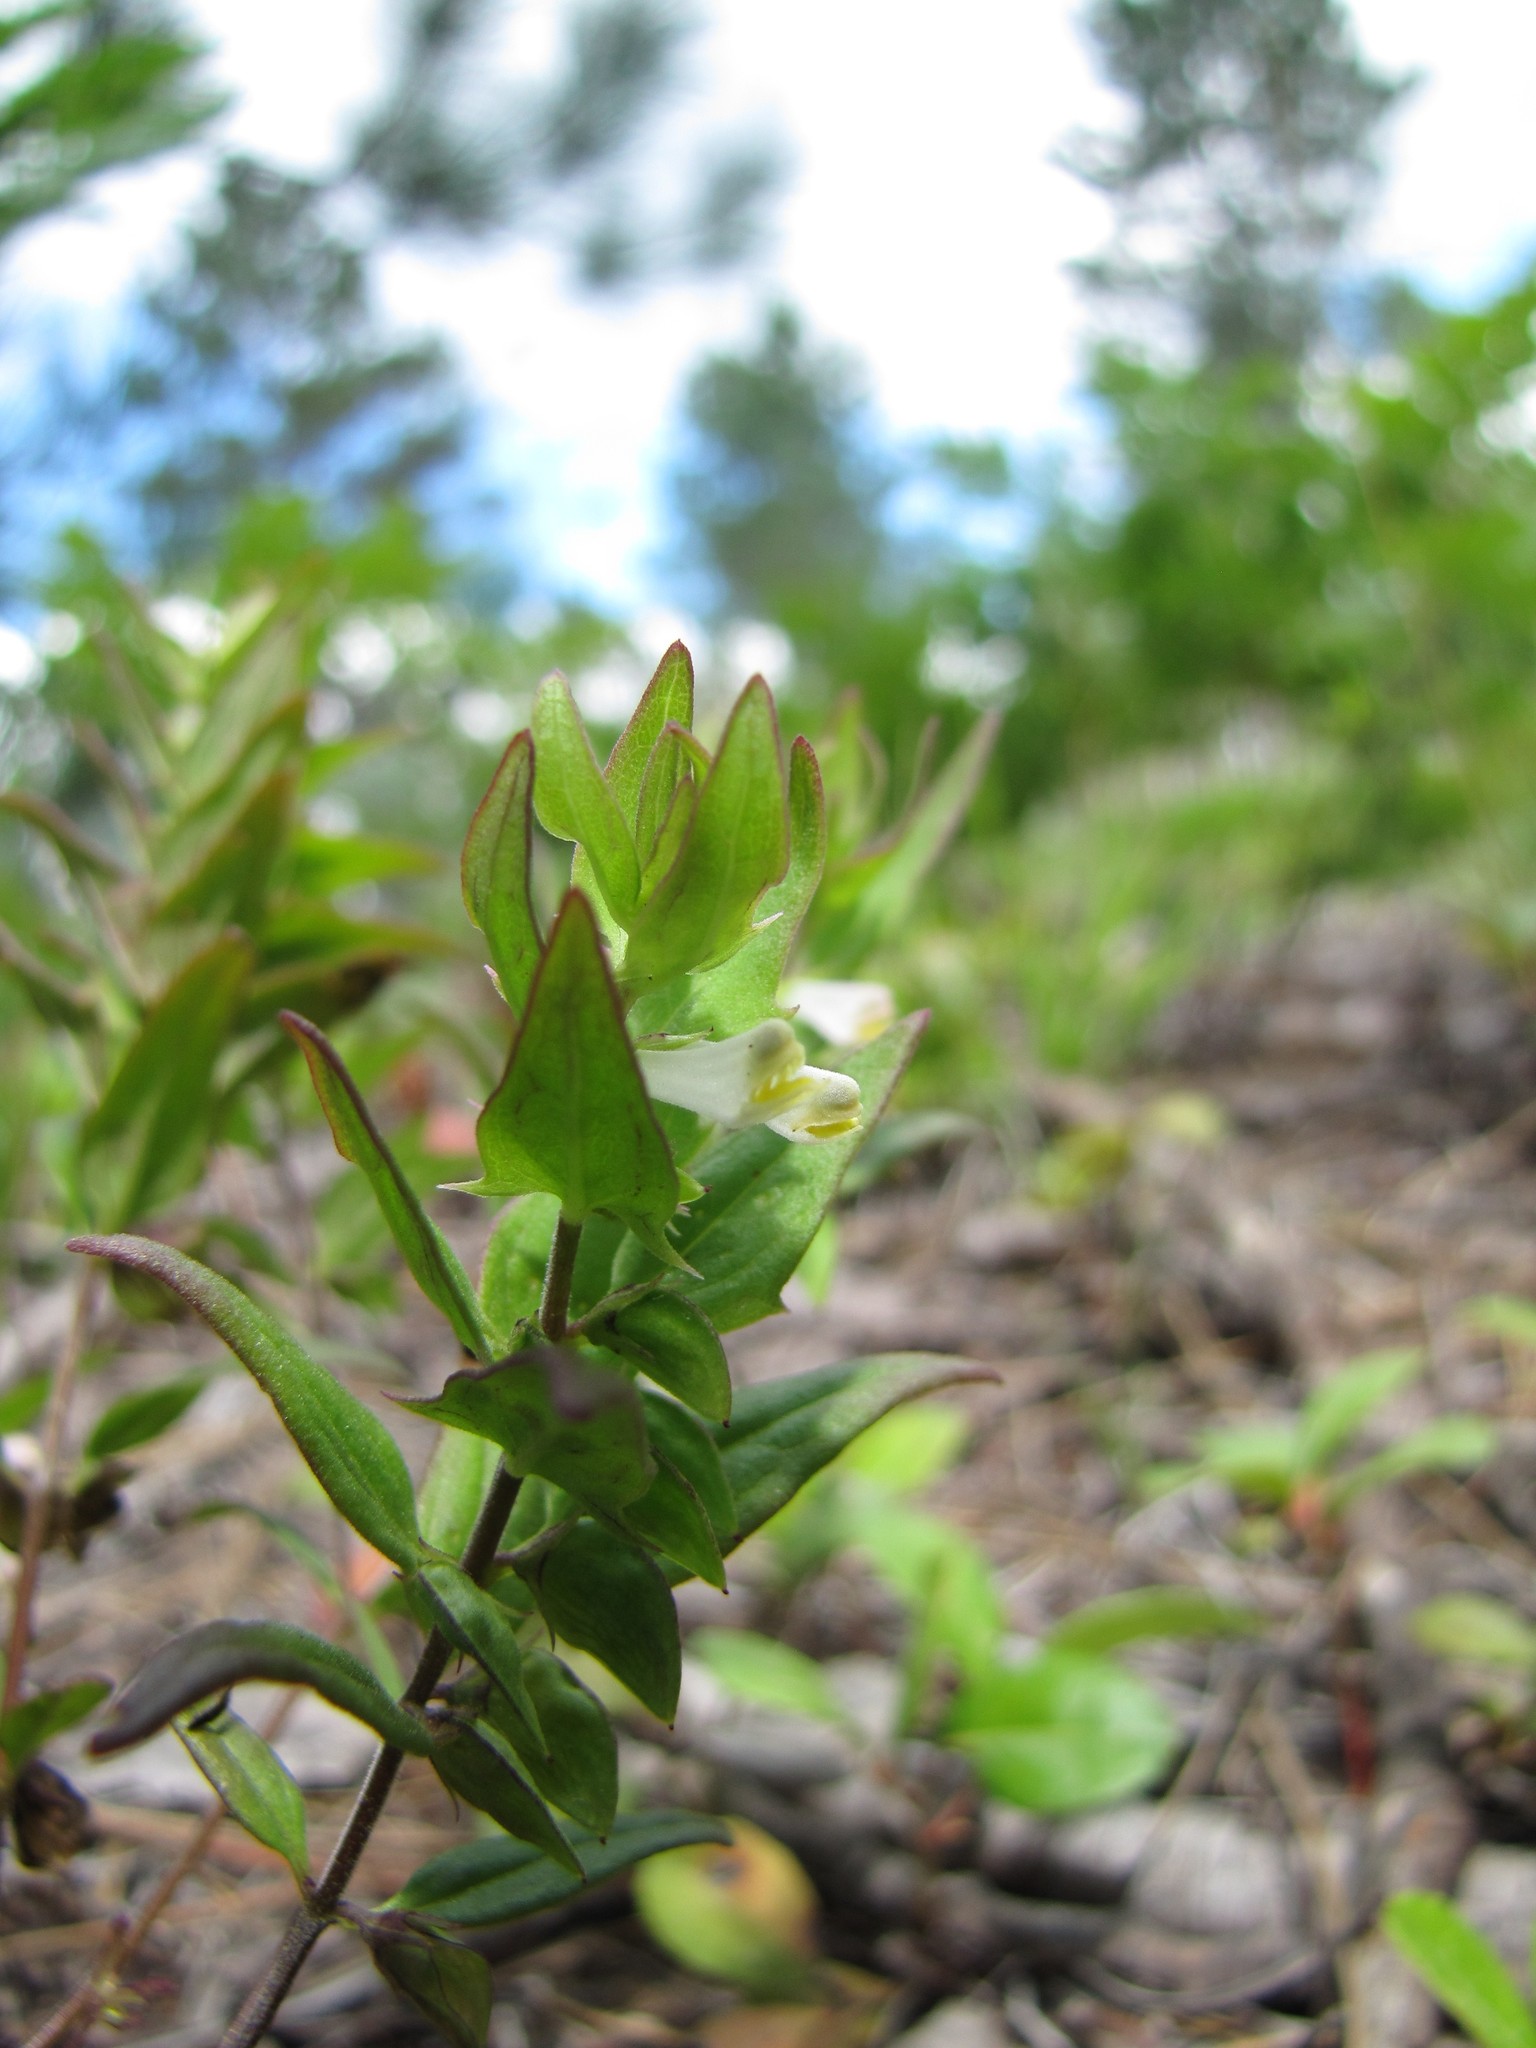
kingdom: Plantae
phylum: Tracheophyta
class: Magnoliopsida
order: Lamiales
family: Orobanchaceae
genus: Melampyrum
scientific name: Melampyrum lineare
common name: American cow-wheat
